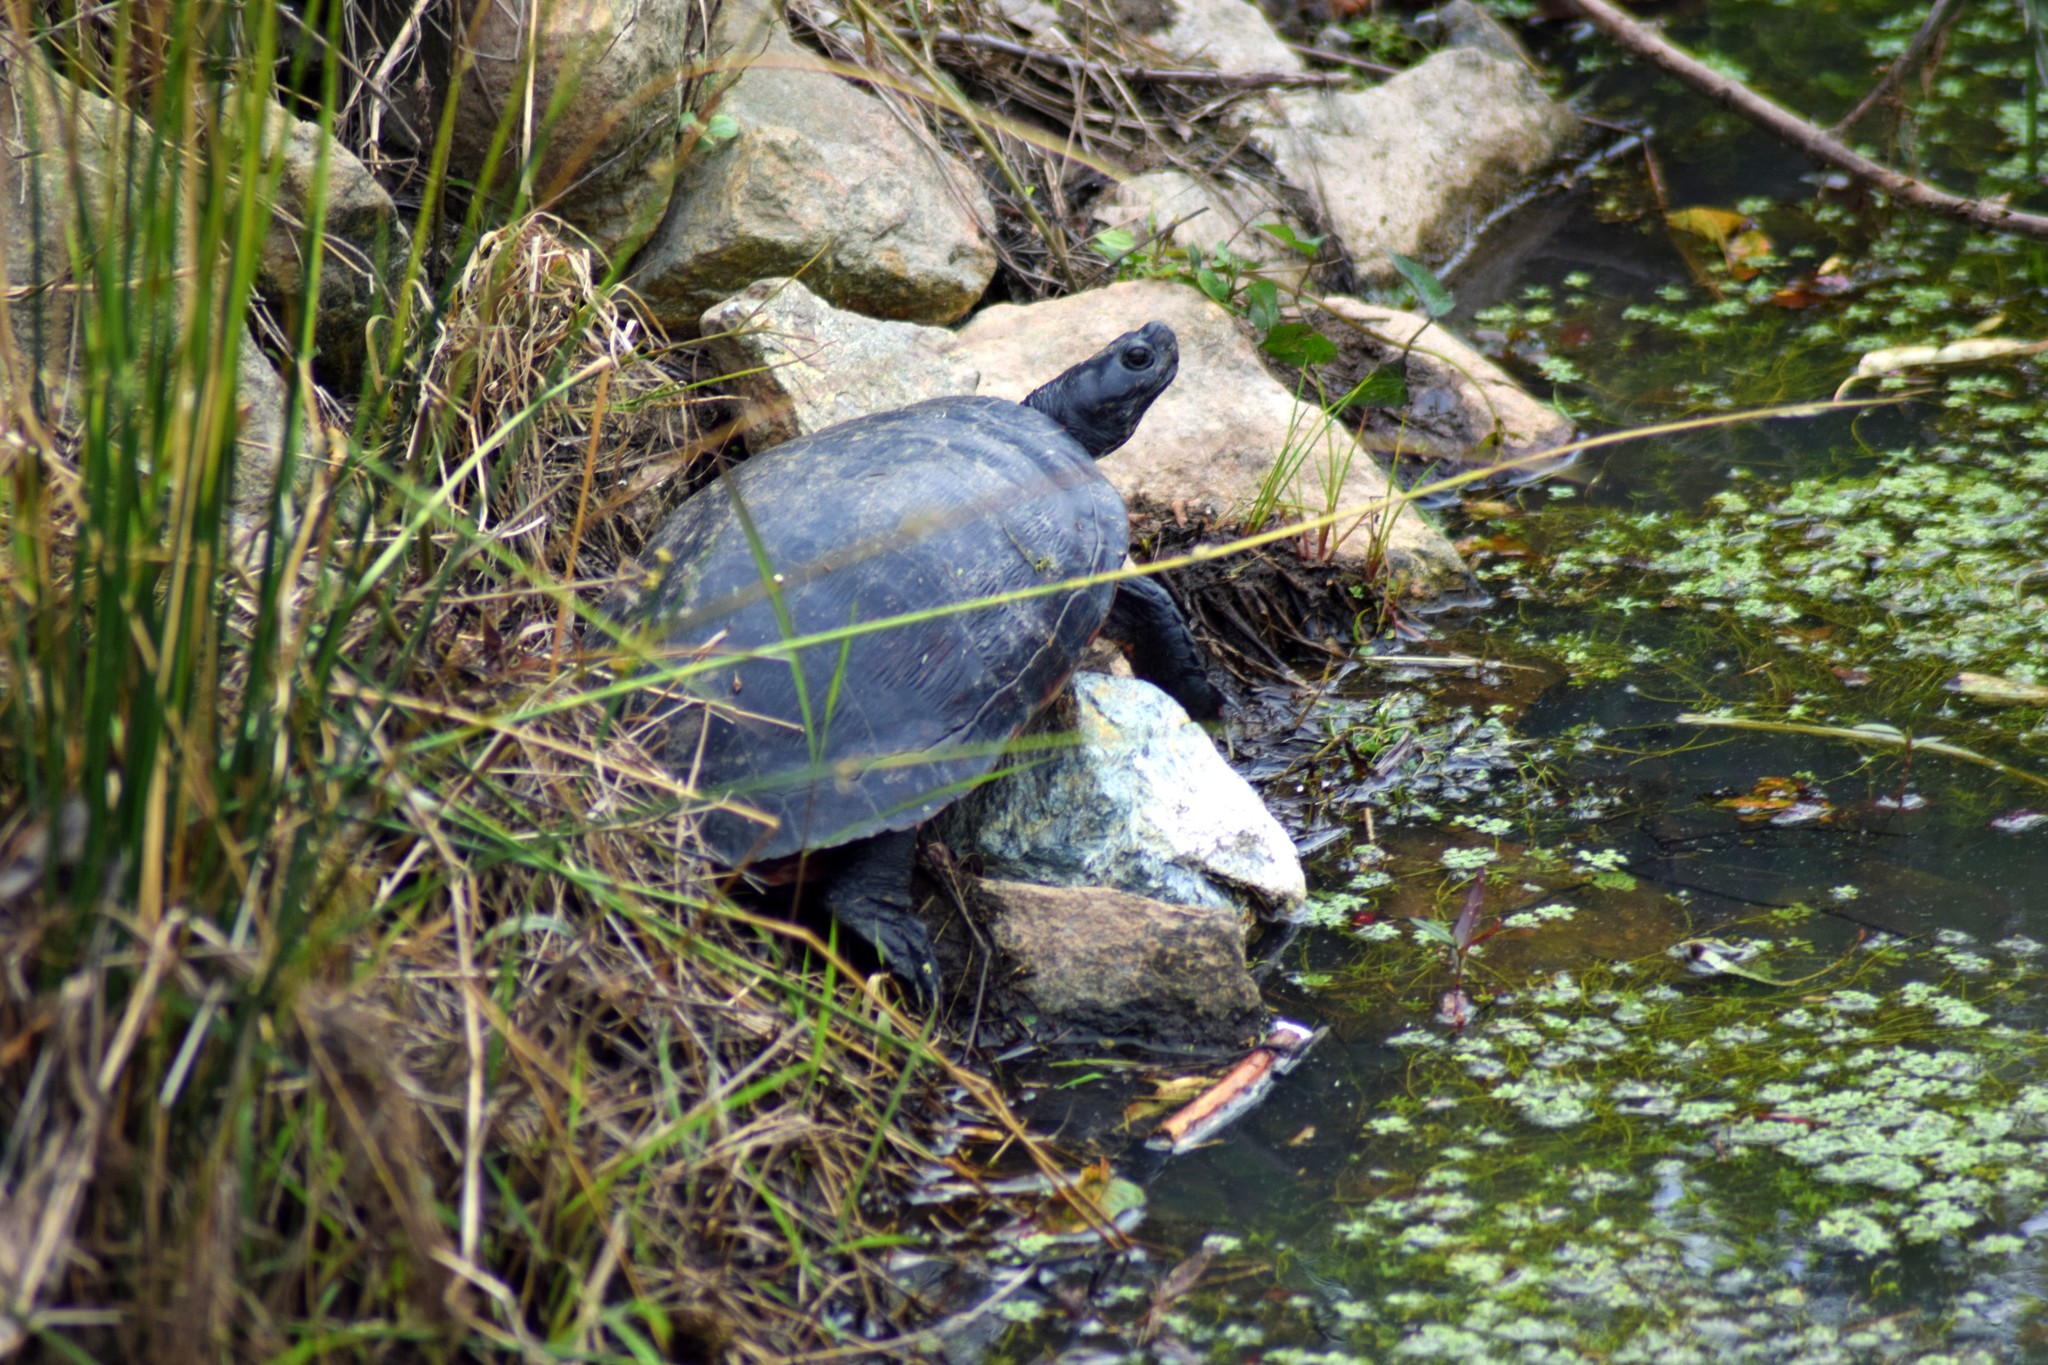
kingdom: Animalia
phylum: Chordata
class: Testudines
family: Emydidae
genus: Pseudemys
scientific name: Pseudemys rubriventris
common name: American red-bellied turtle
